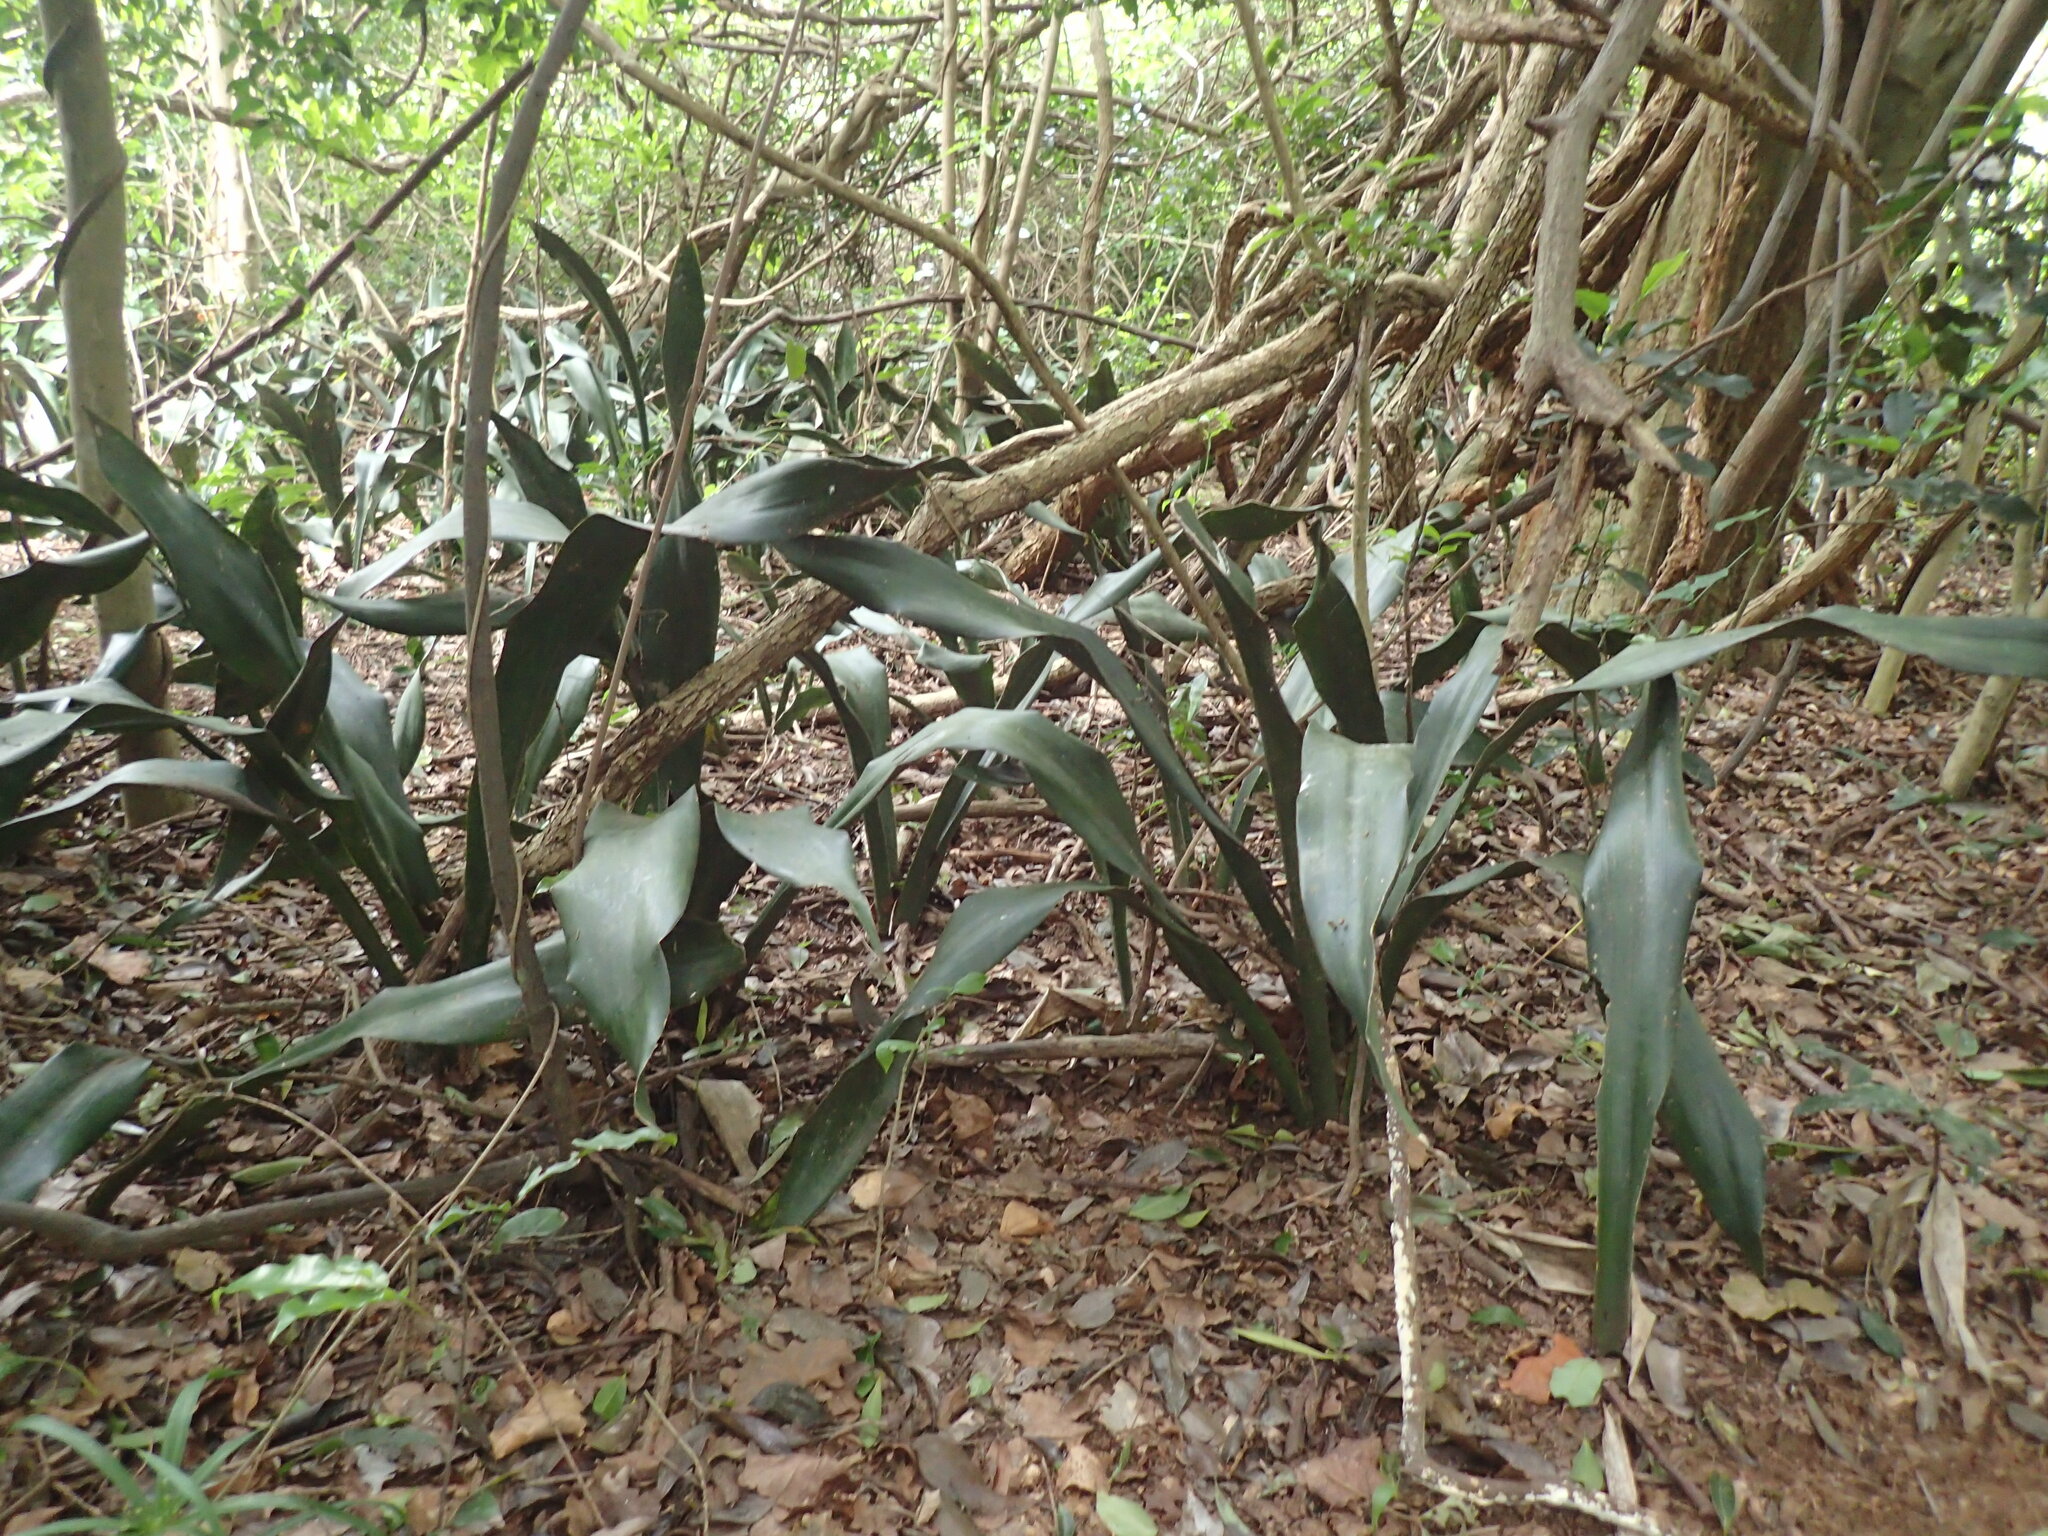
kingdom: Plantae
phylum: Tracheophyta
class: Liliopsida
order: Asparagales
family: Asparagaceae
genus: Dracaena
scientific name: Dracaena hyacinthoides
